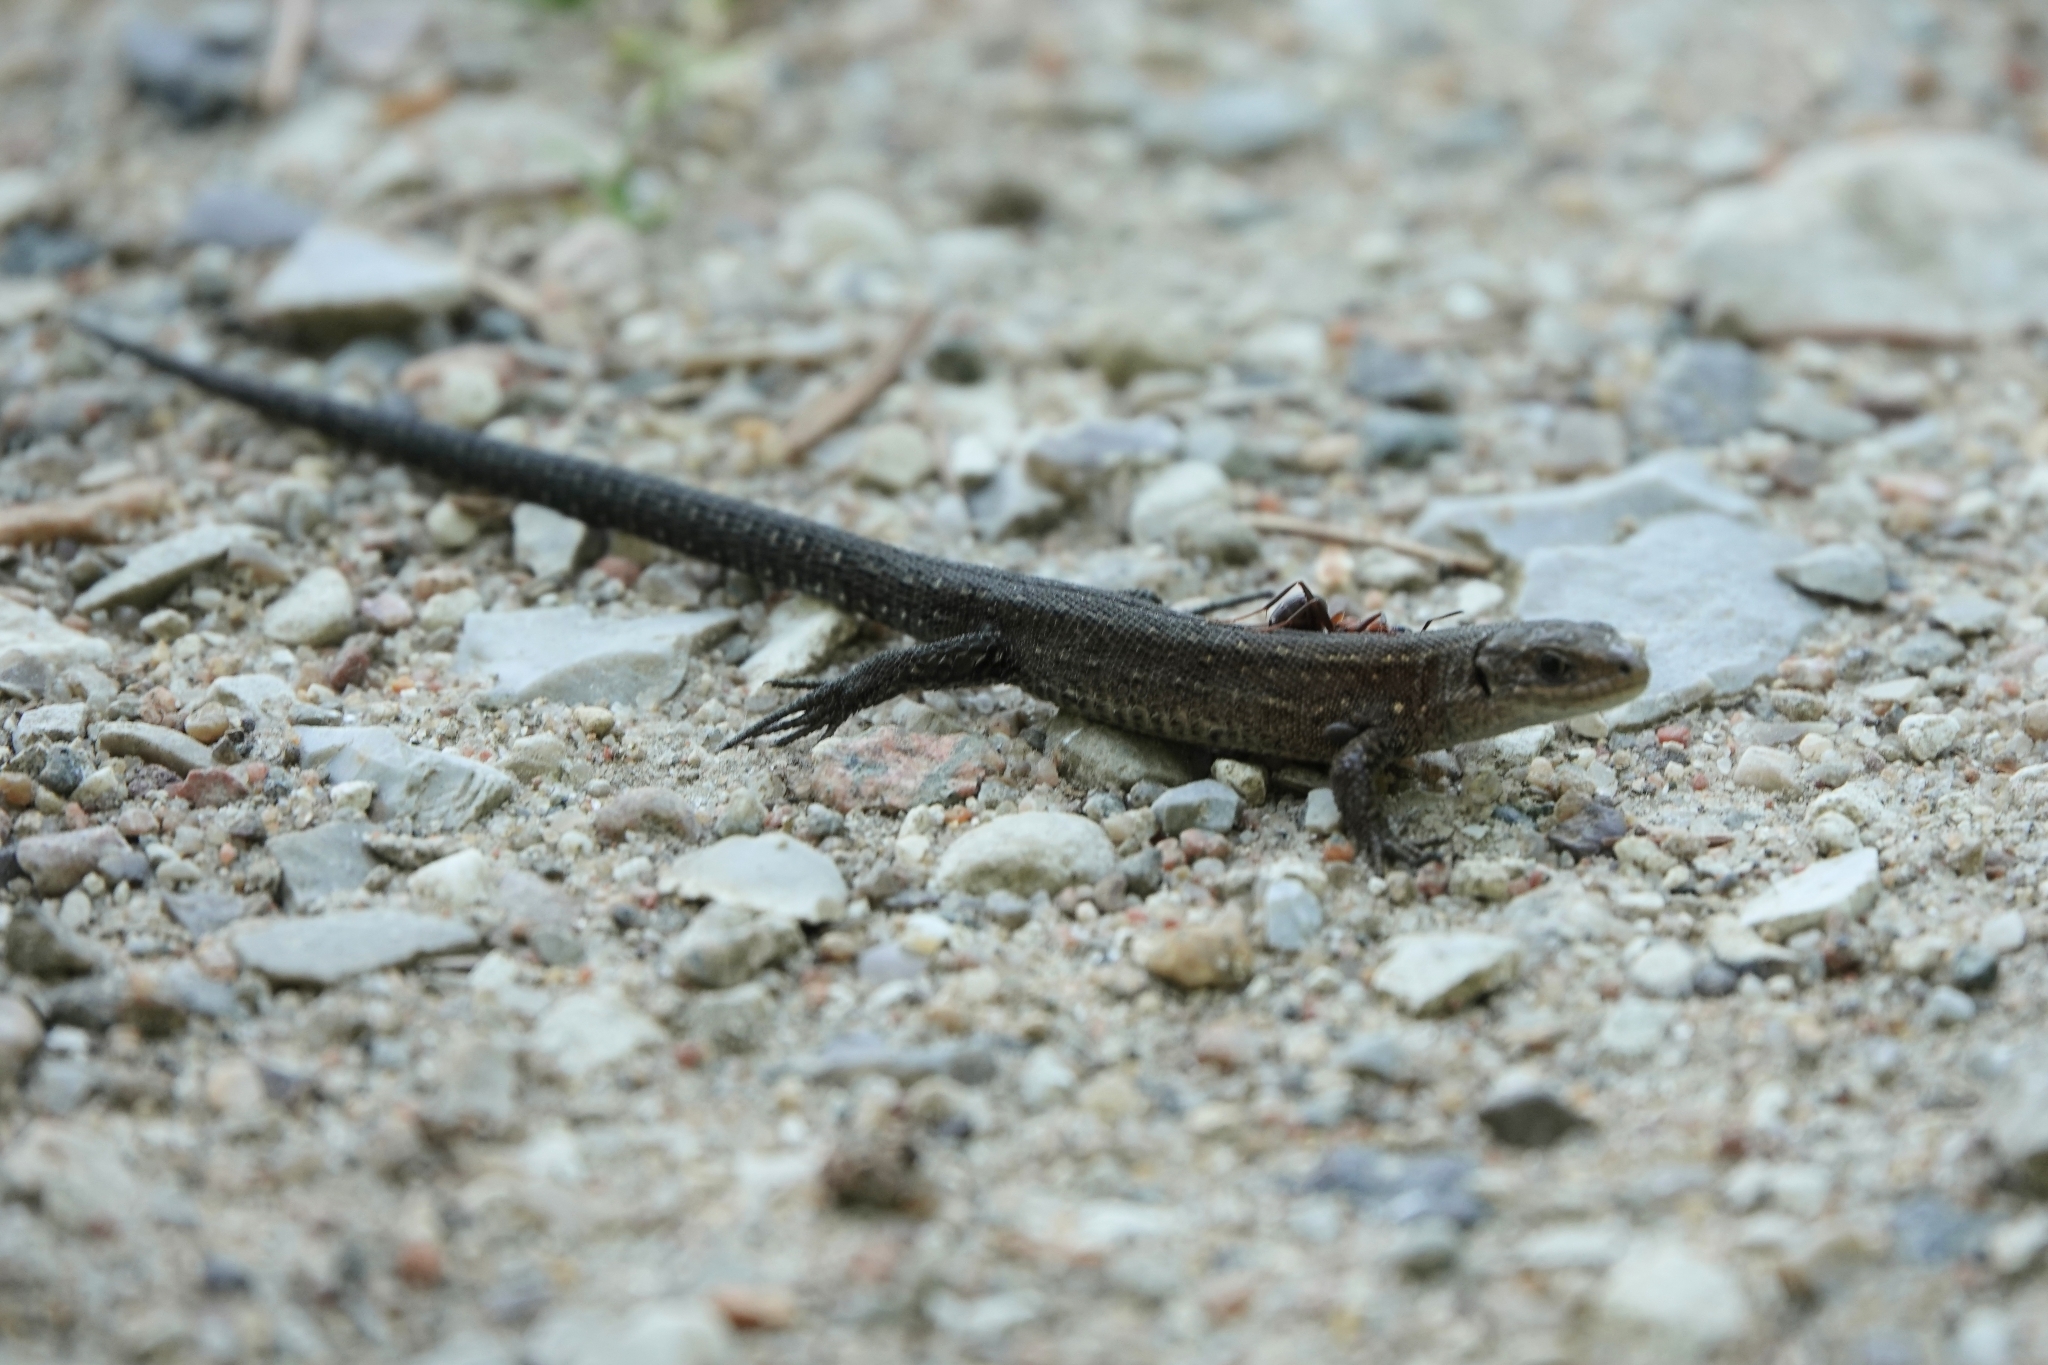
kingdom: Animalia
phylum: Chordata
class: Squamata
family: Lacertidae
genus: Zootoca
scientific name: Zootoca vivipara
